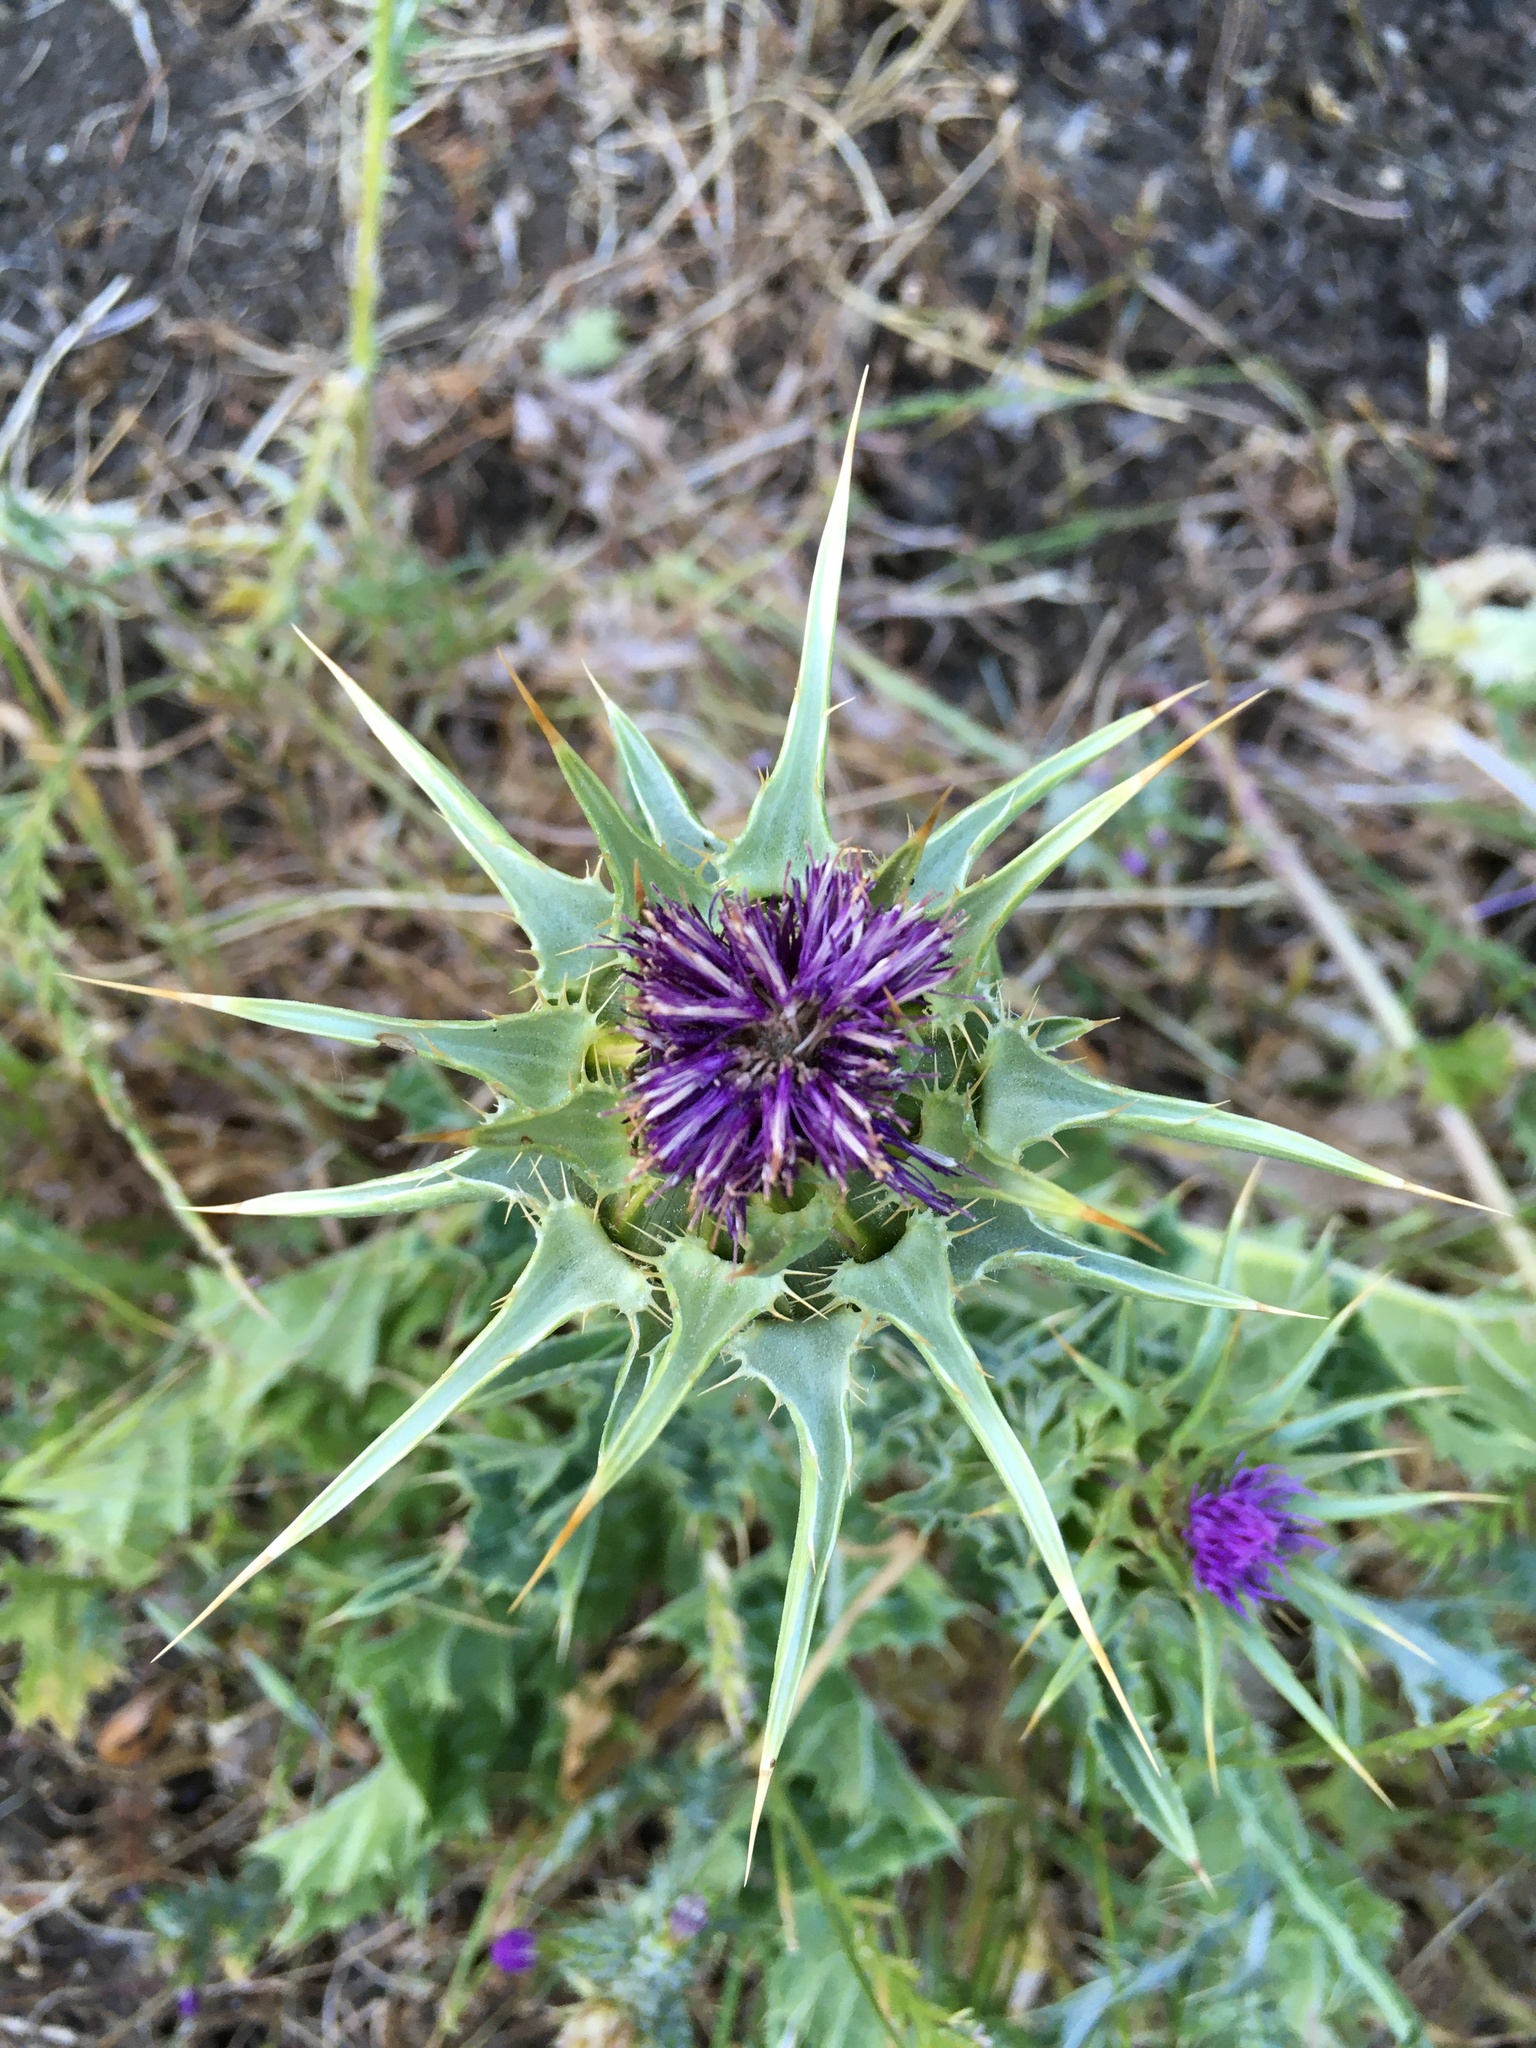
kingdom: Plantae
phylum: Tracheophyta
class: Magnoliopsida
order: Asterales
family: Asteraceae
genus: Silybum
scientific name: Silybum marianum
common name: Milk thistle
